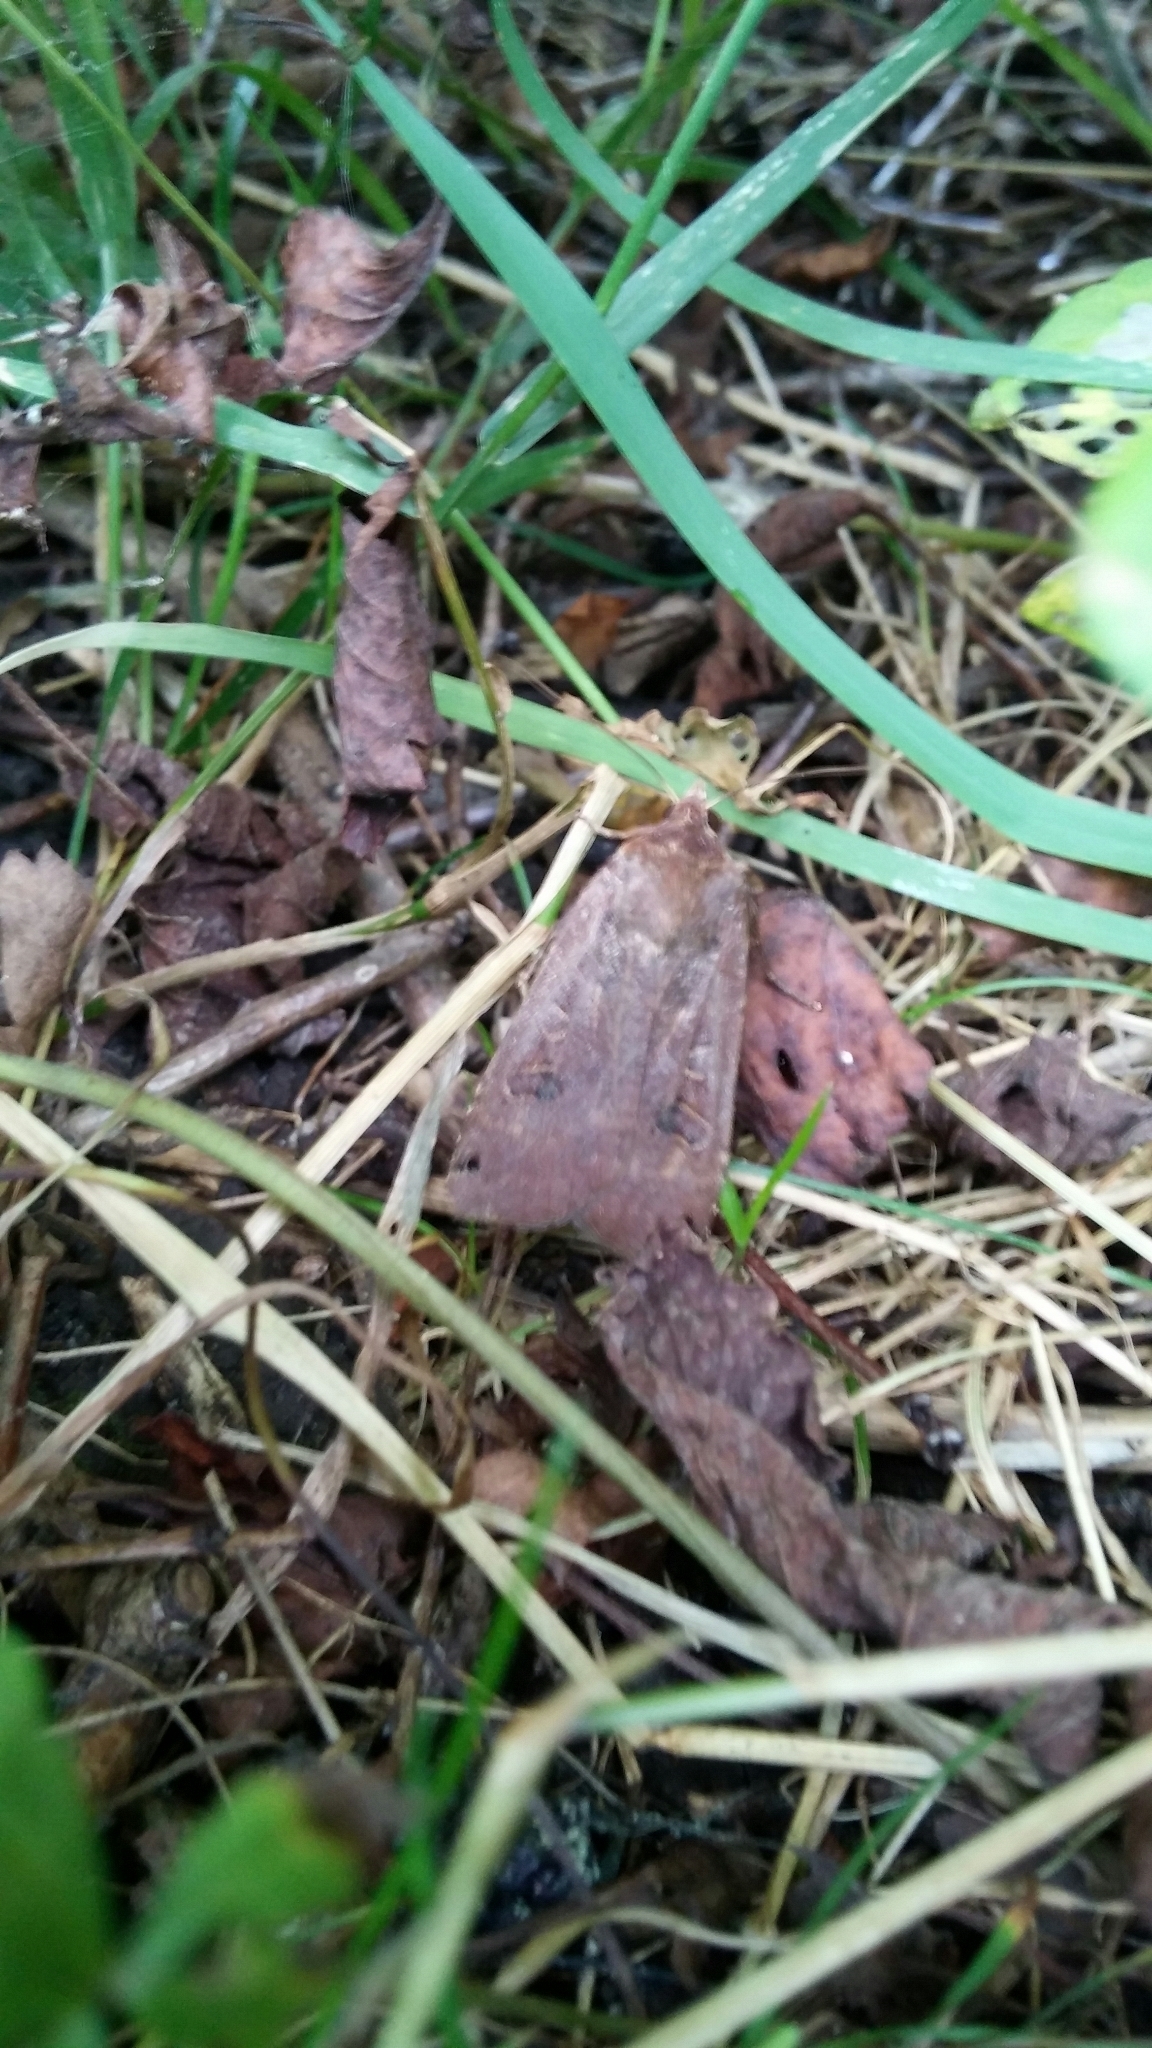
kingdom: Animalia
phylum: Arthropoda
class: Insecta
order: Lepidoptera
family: Noctuidae
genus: Noctua
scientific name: Noctua comes
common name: Lesser yellow underwing
